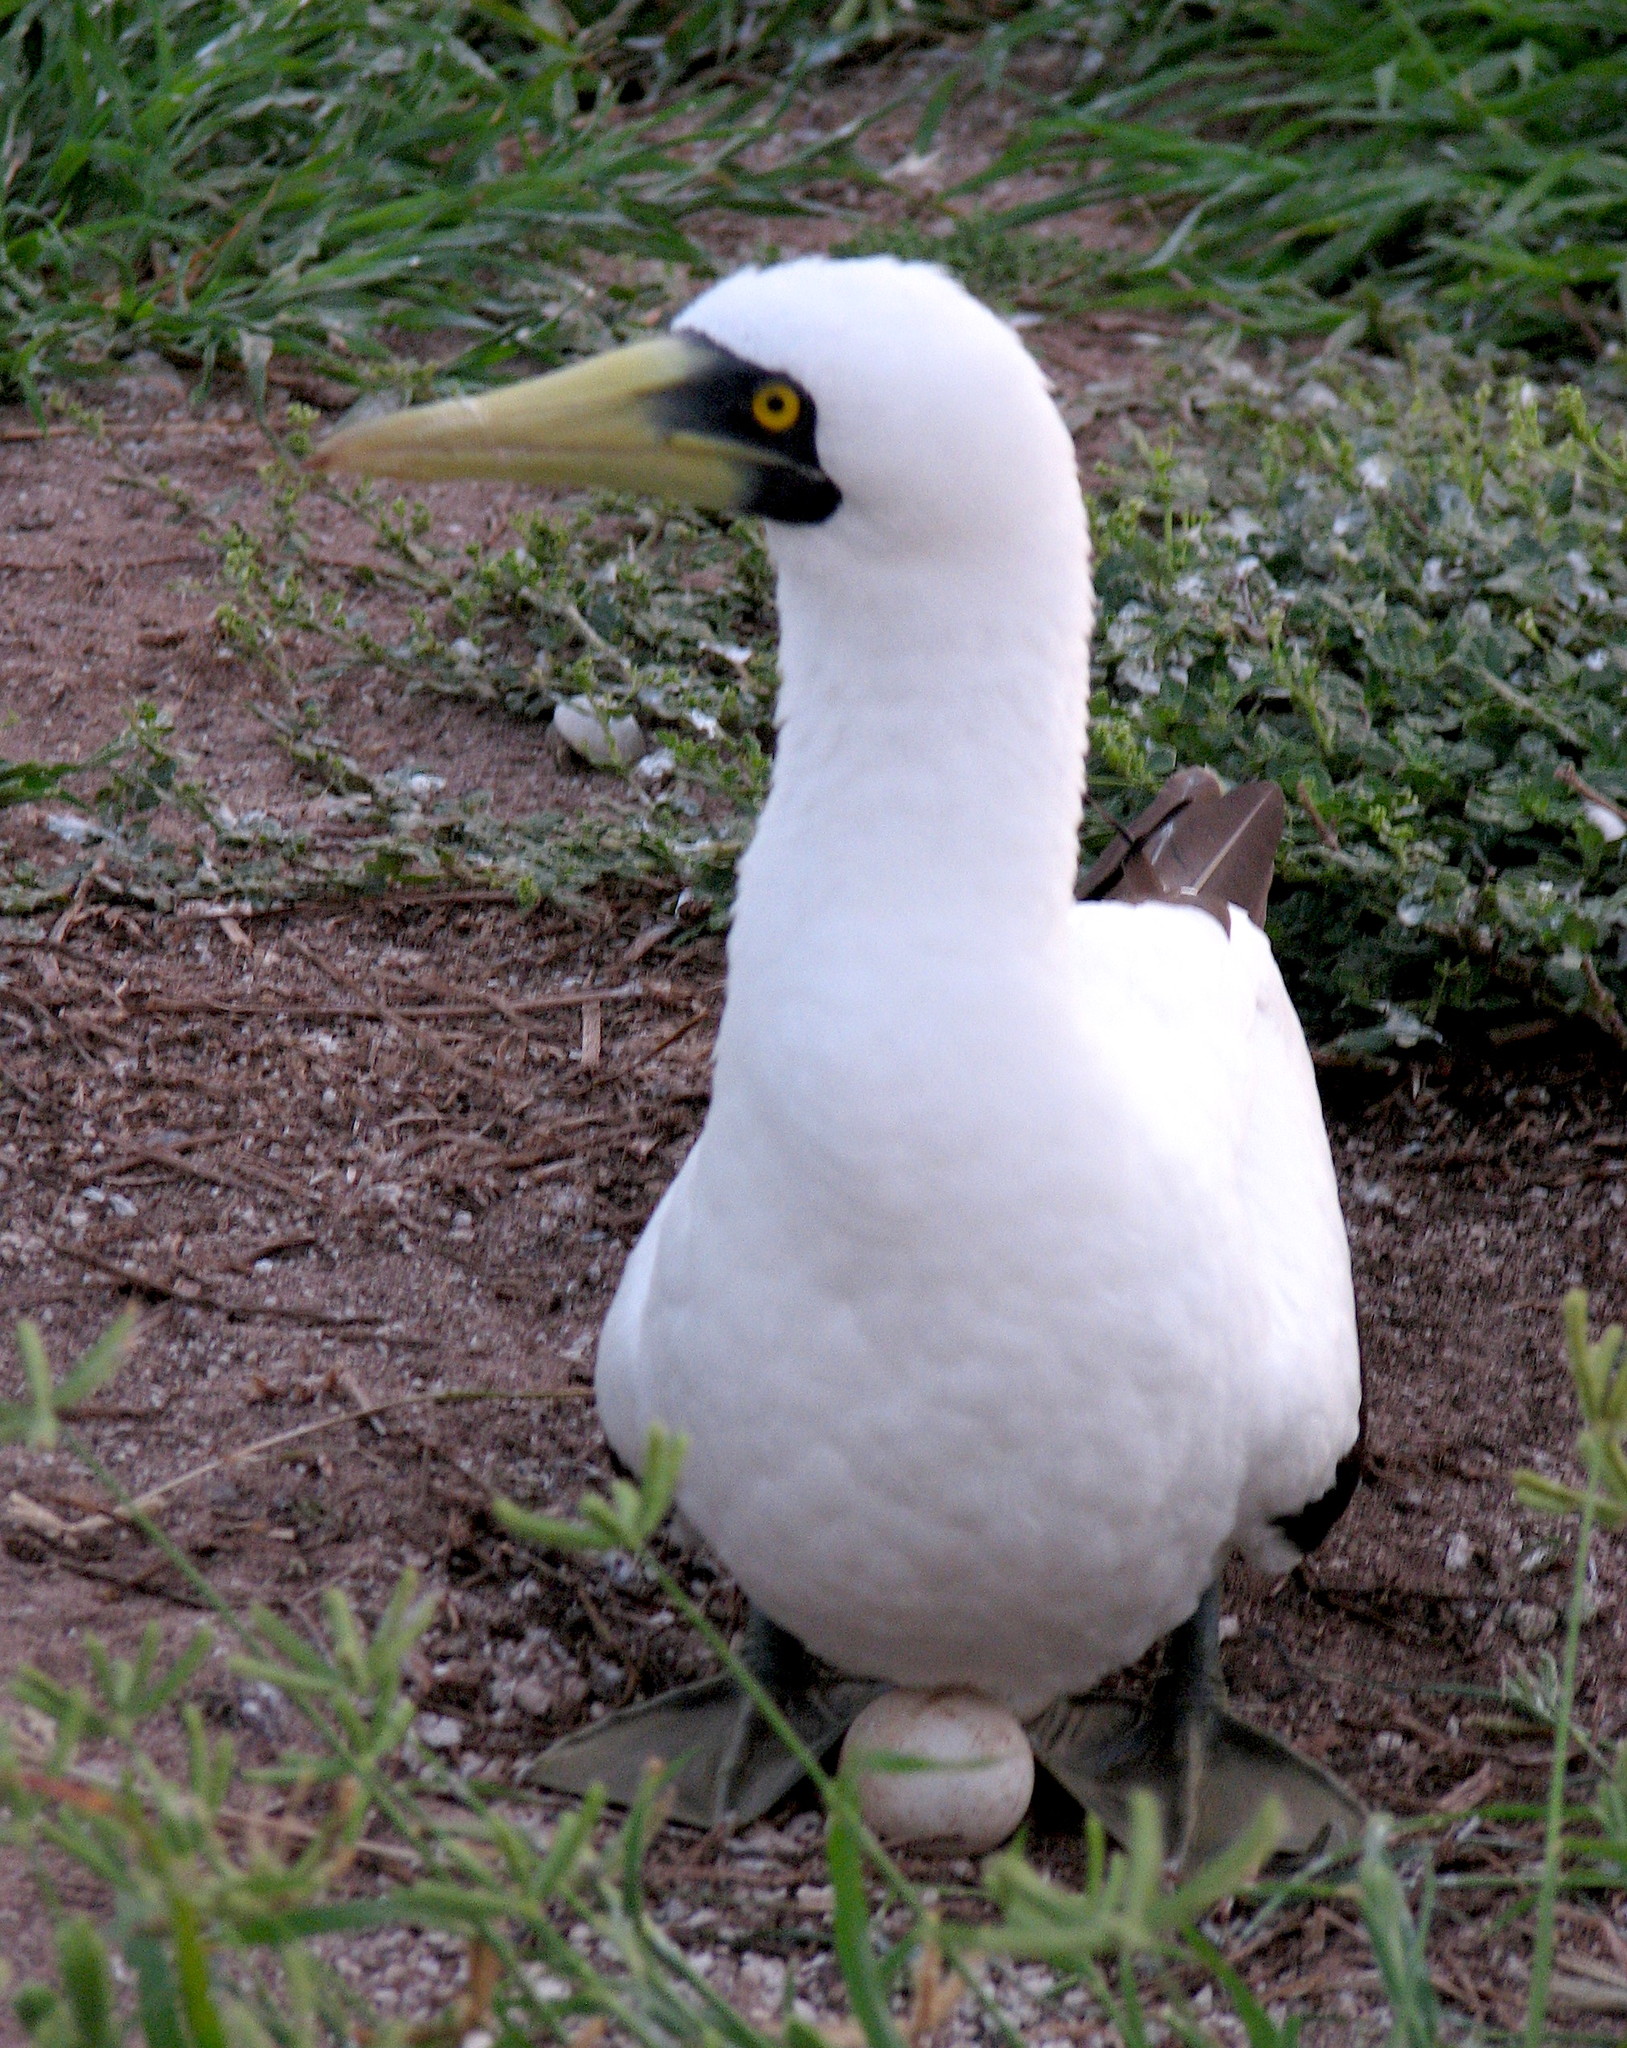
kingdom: Animalia
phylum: Chordata
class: Aves
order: Suliformes
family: Sulidae
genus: Sula
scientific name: Sula dactylatra
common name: Masked booby
